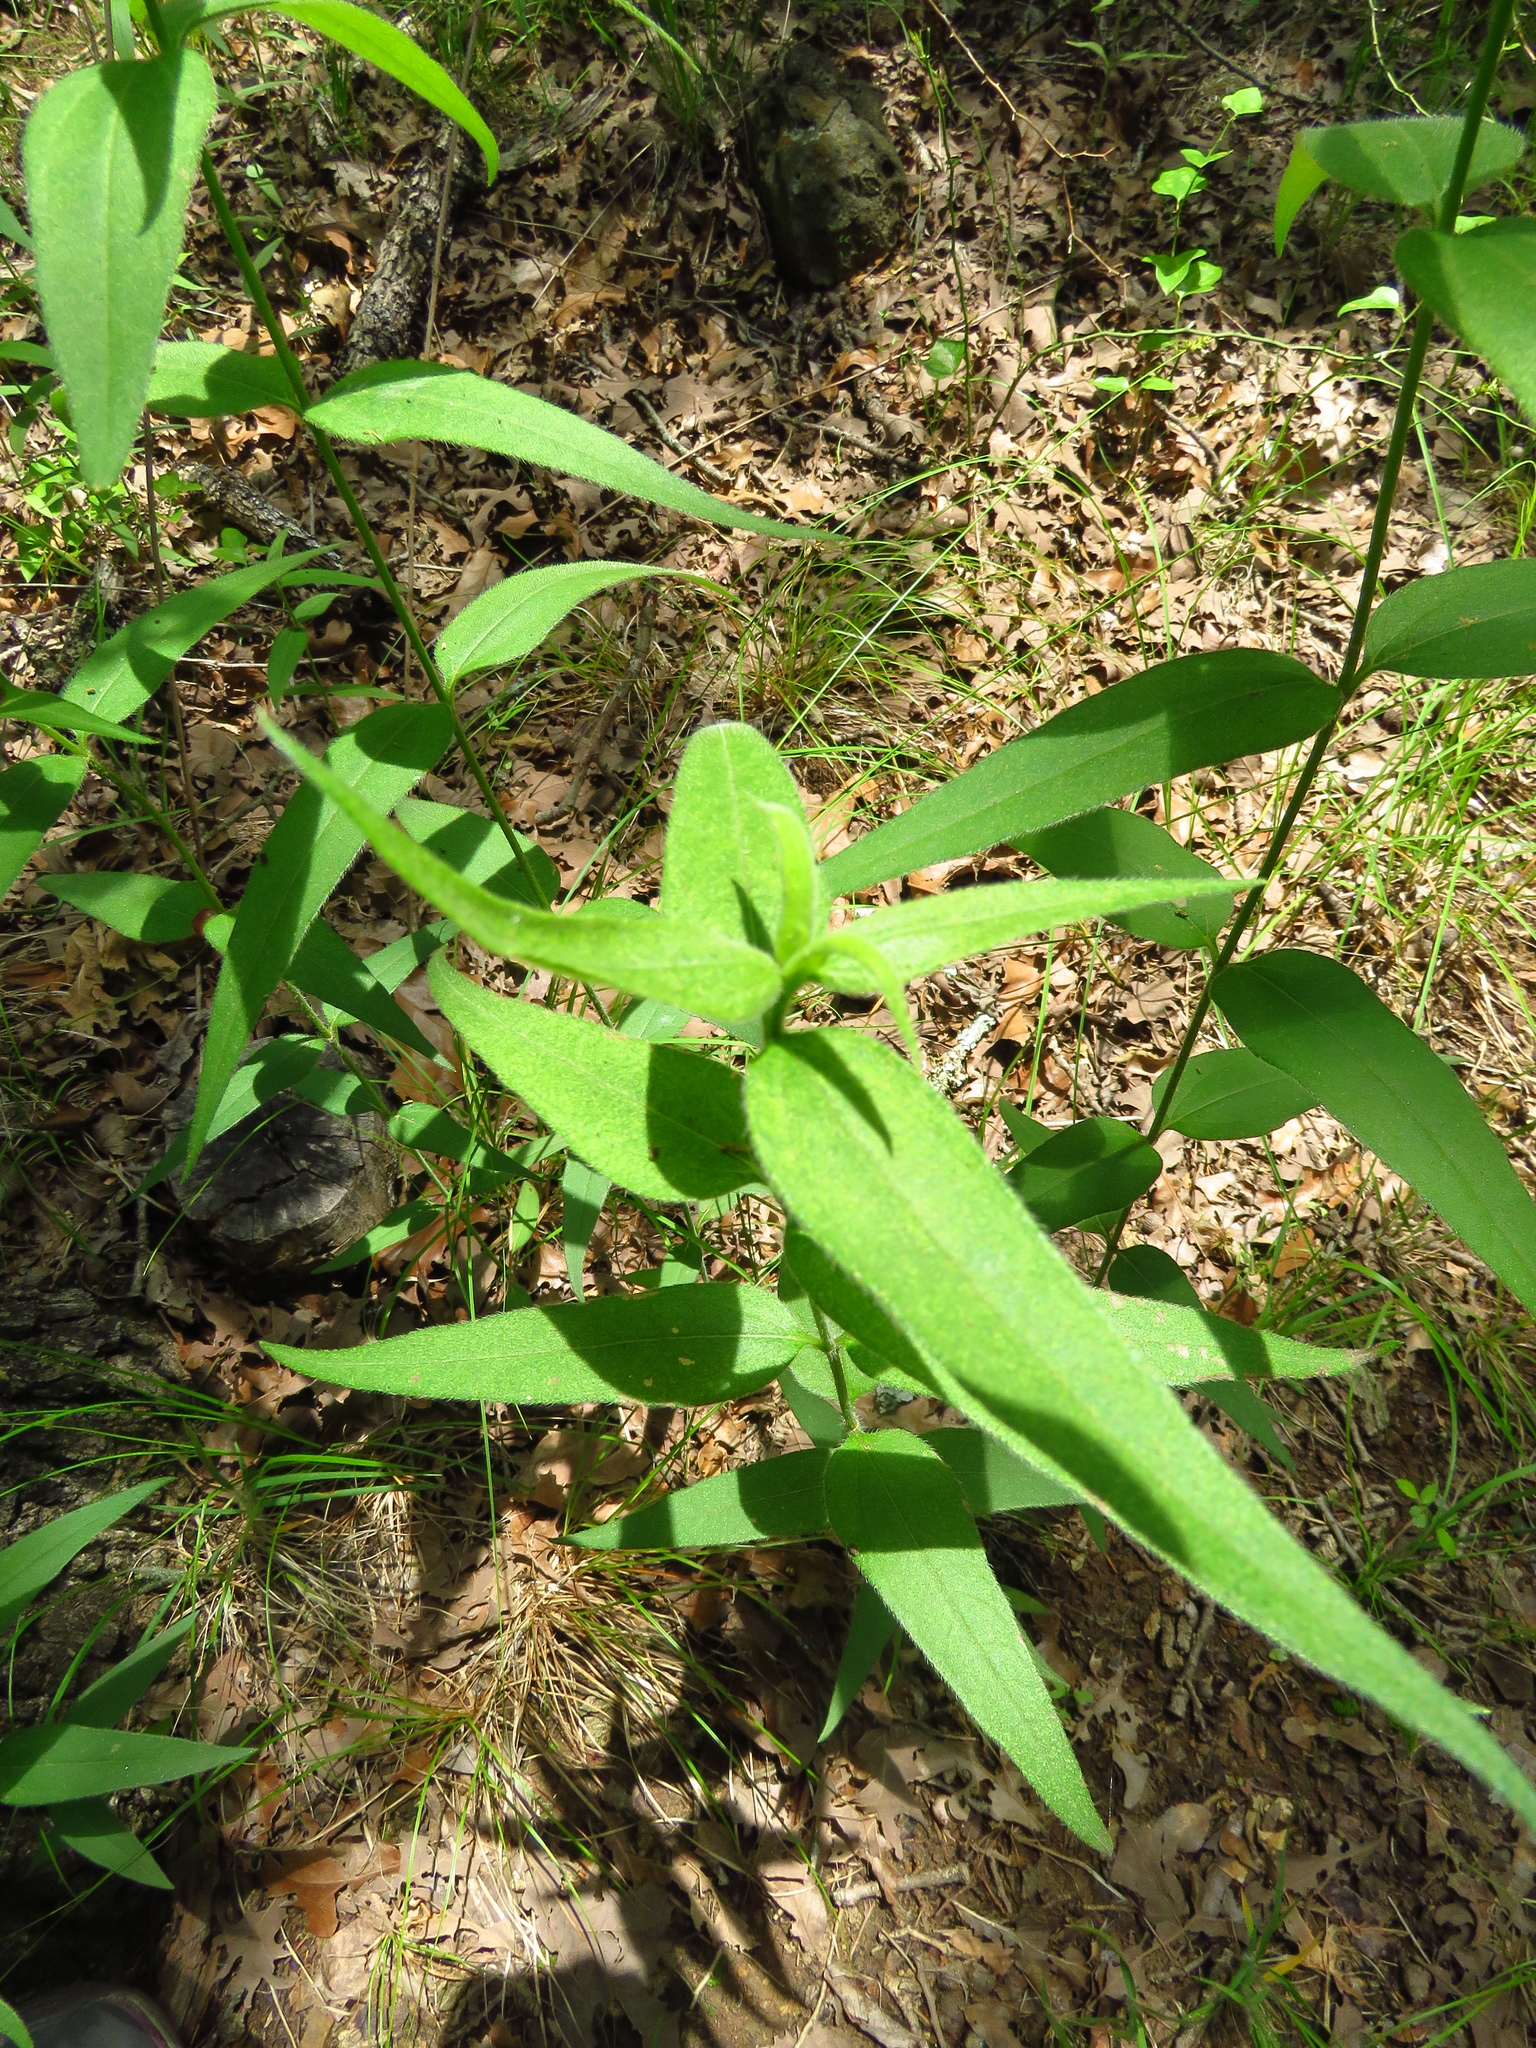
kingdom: Plantae
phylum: Tracheophyta
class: Magnoliopsida
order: Asterales
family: Asteraceae
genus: Helianthus
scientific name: Helianthus hirsutus
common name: Hairy sunflower
